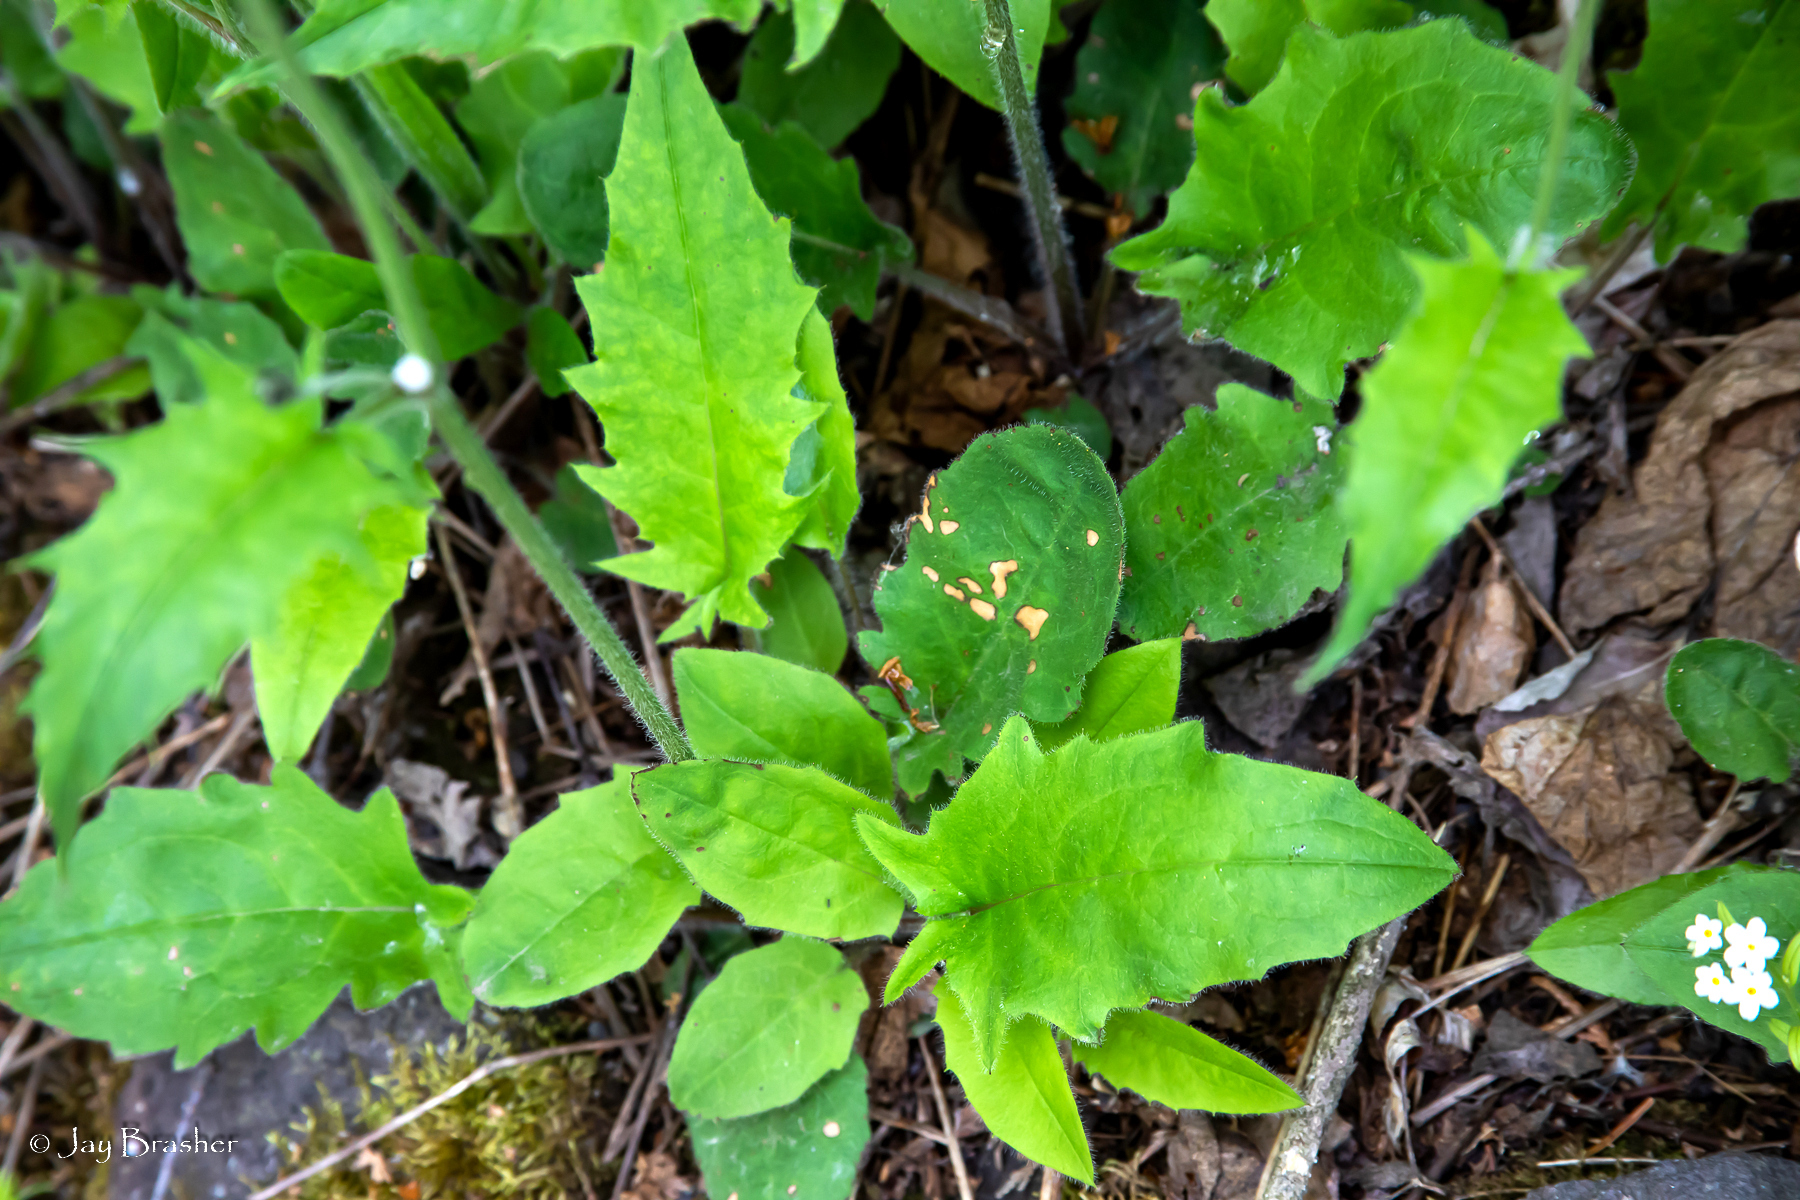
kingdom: Plantae
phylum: Tracheophyta
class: Magnoliopsida
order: Asterales
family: Asteraceae
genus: Hieracium
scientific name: Hieracium murorum
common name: Wall hawkweed
